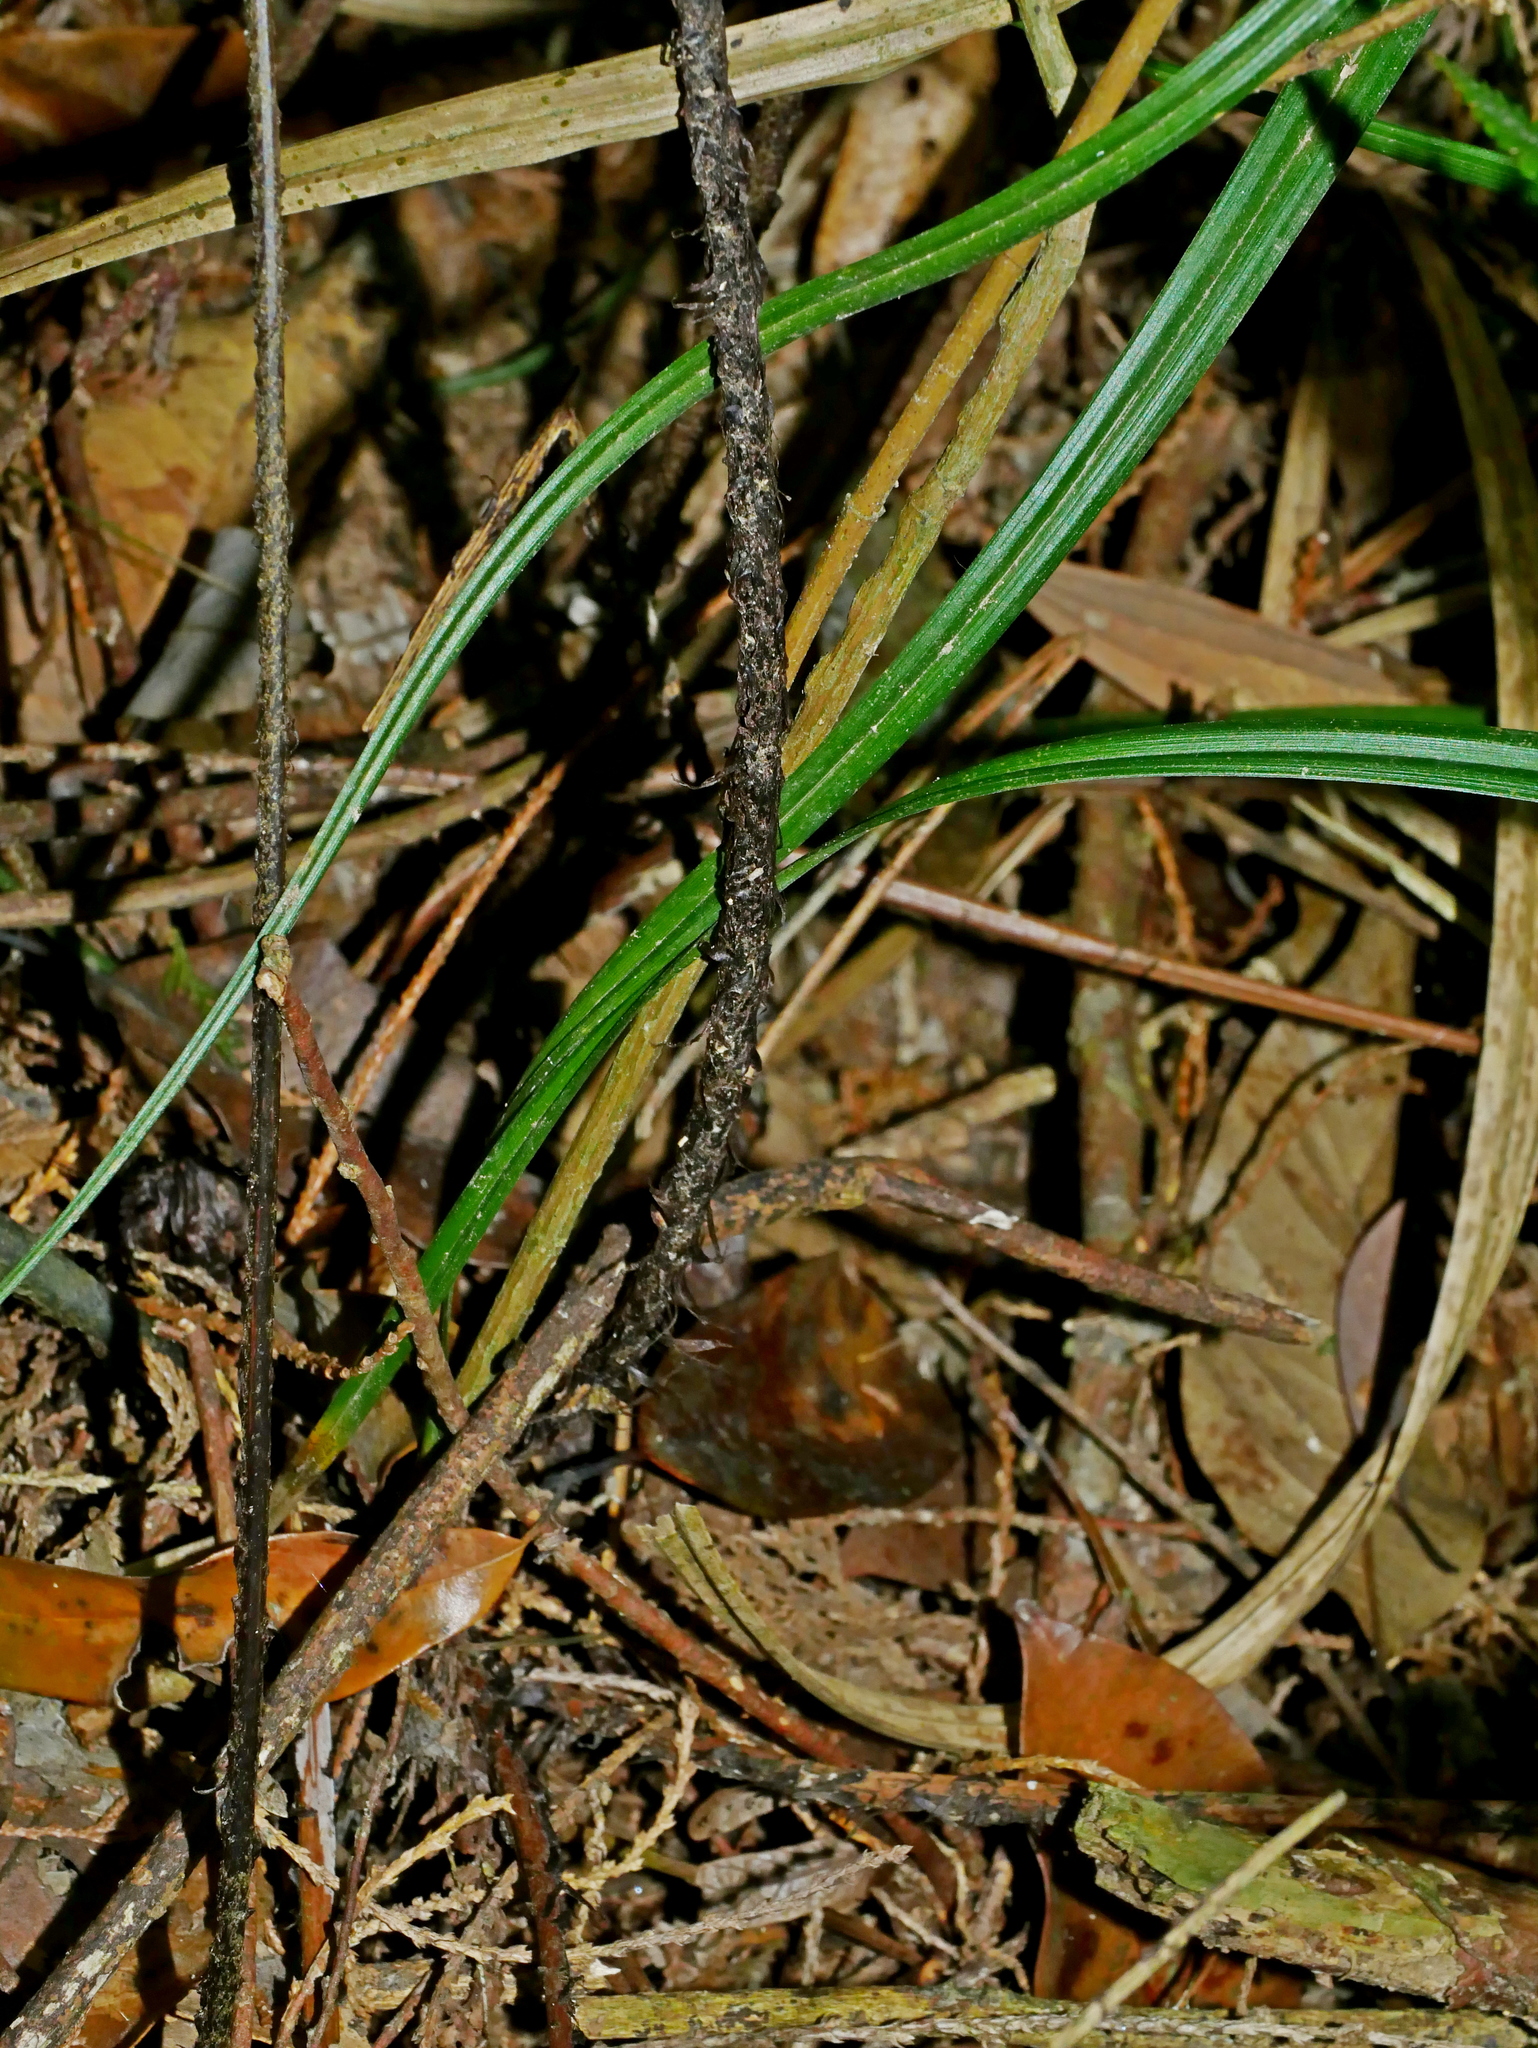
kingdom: Plantae
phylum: Tracheophyta
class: Polypodiopsida
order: Polypodiales
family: Dryopteridaceae
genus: Dryopteris
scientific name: Dryopteris formosana
